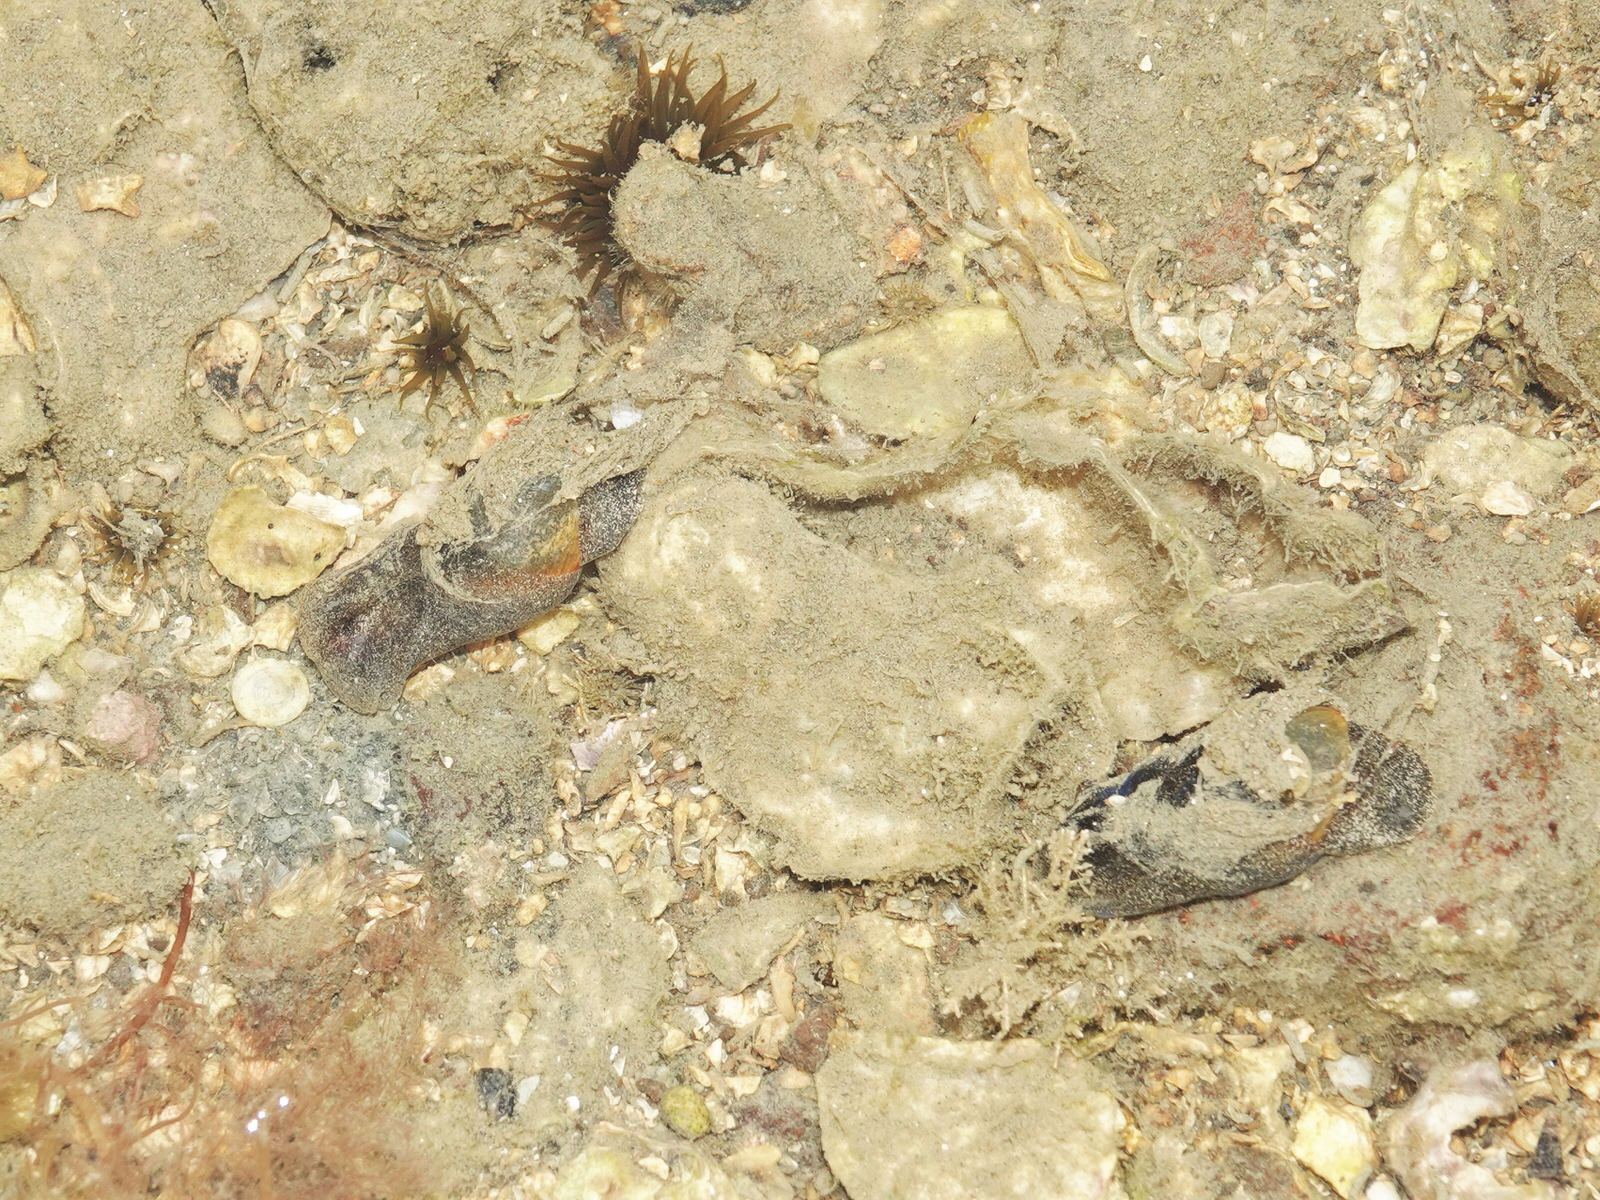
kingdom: Animalia
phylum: Mollusca
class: Gastropoda
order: Cephalaspidea
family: Haminoeidae
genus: Papawera
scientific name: Papawera zelandiae
